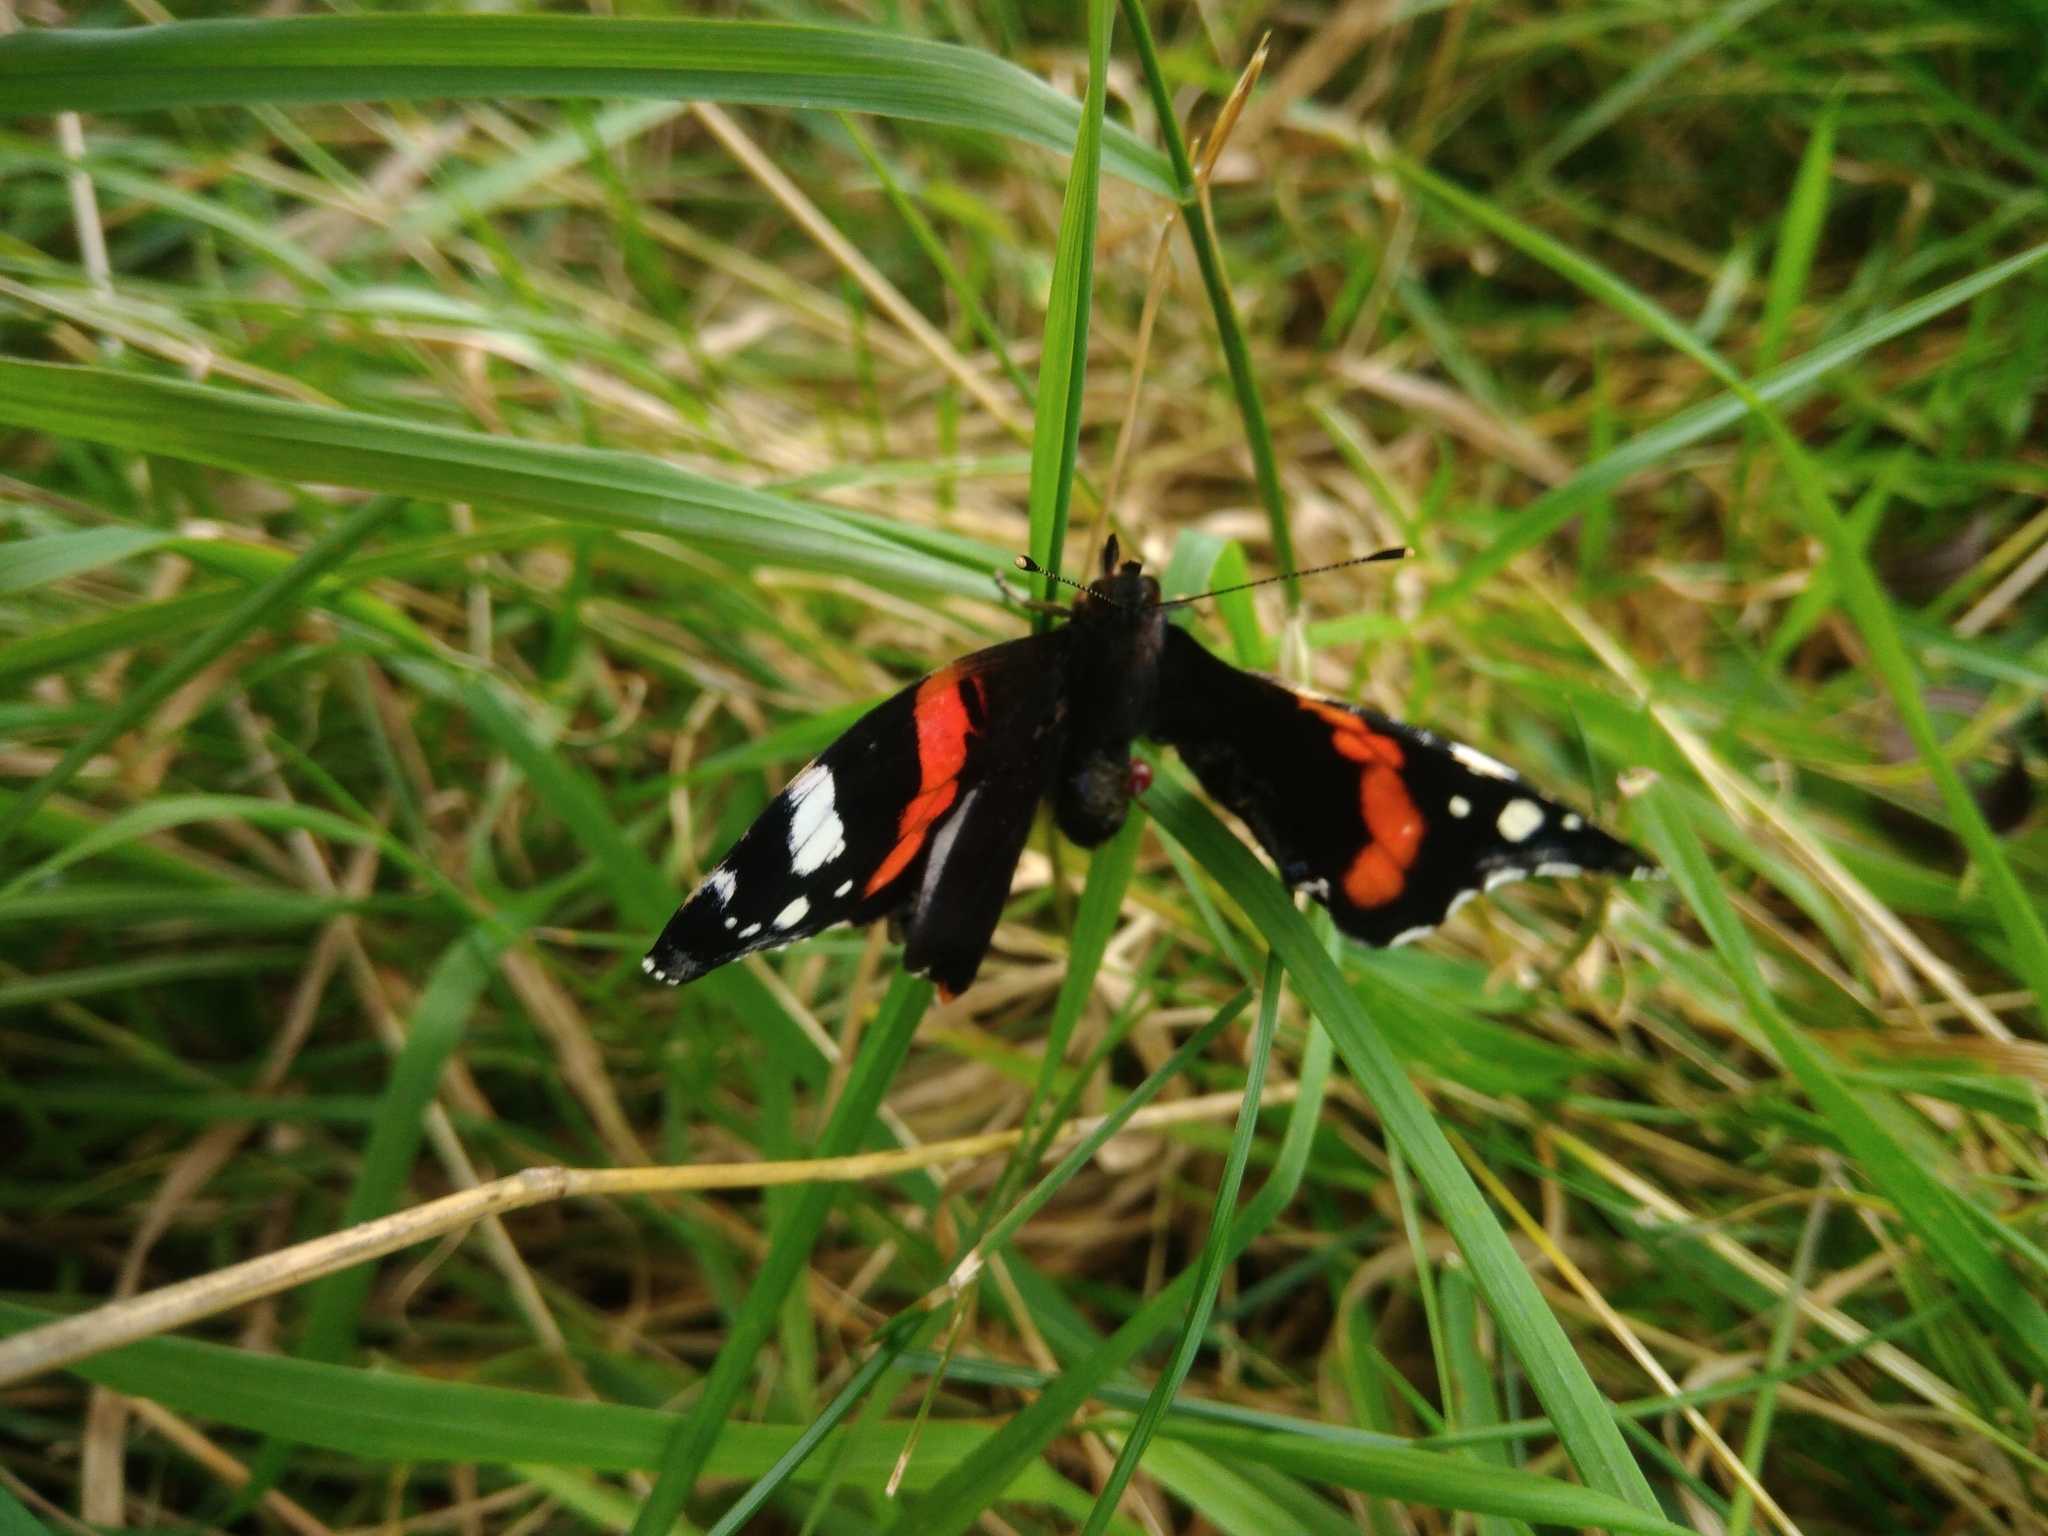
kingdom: Animalia
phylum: Arthropoda
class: Insecta
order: Lepidoptera
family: Nymphalidae
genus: Vanessa
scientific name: Vanessa atalanta
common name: Red admiral
